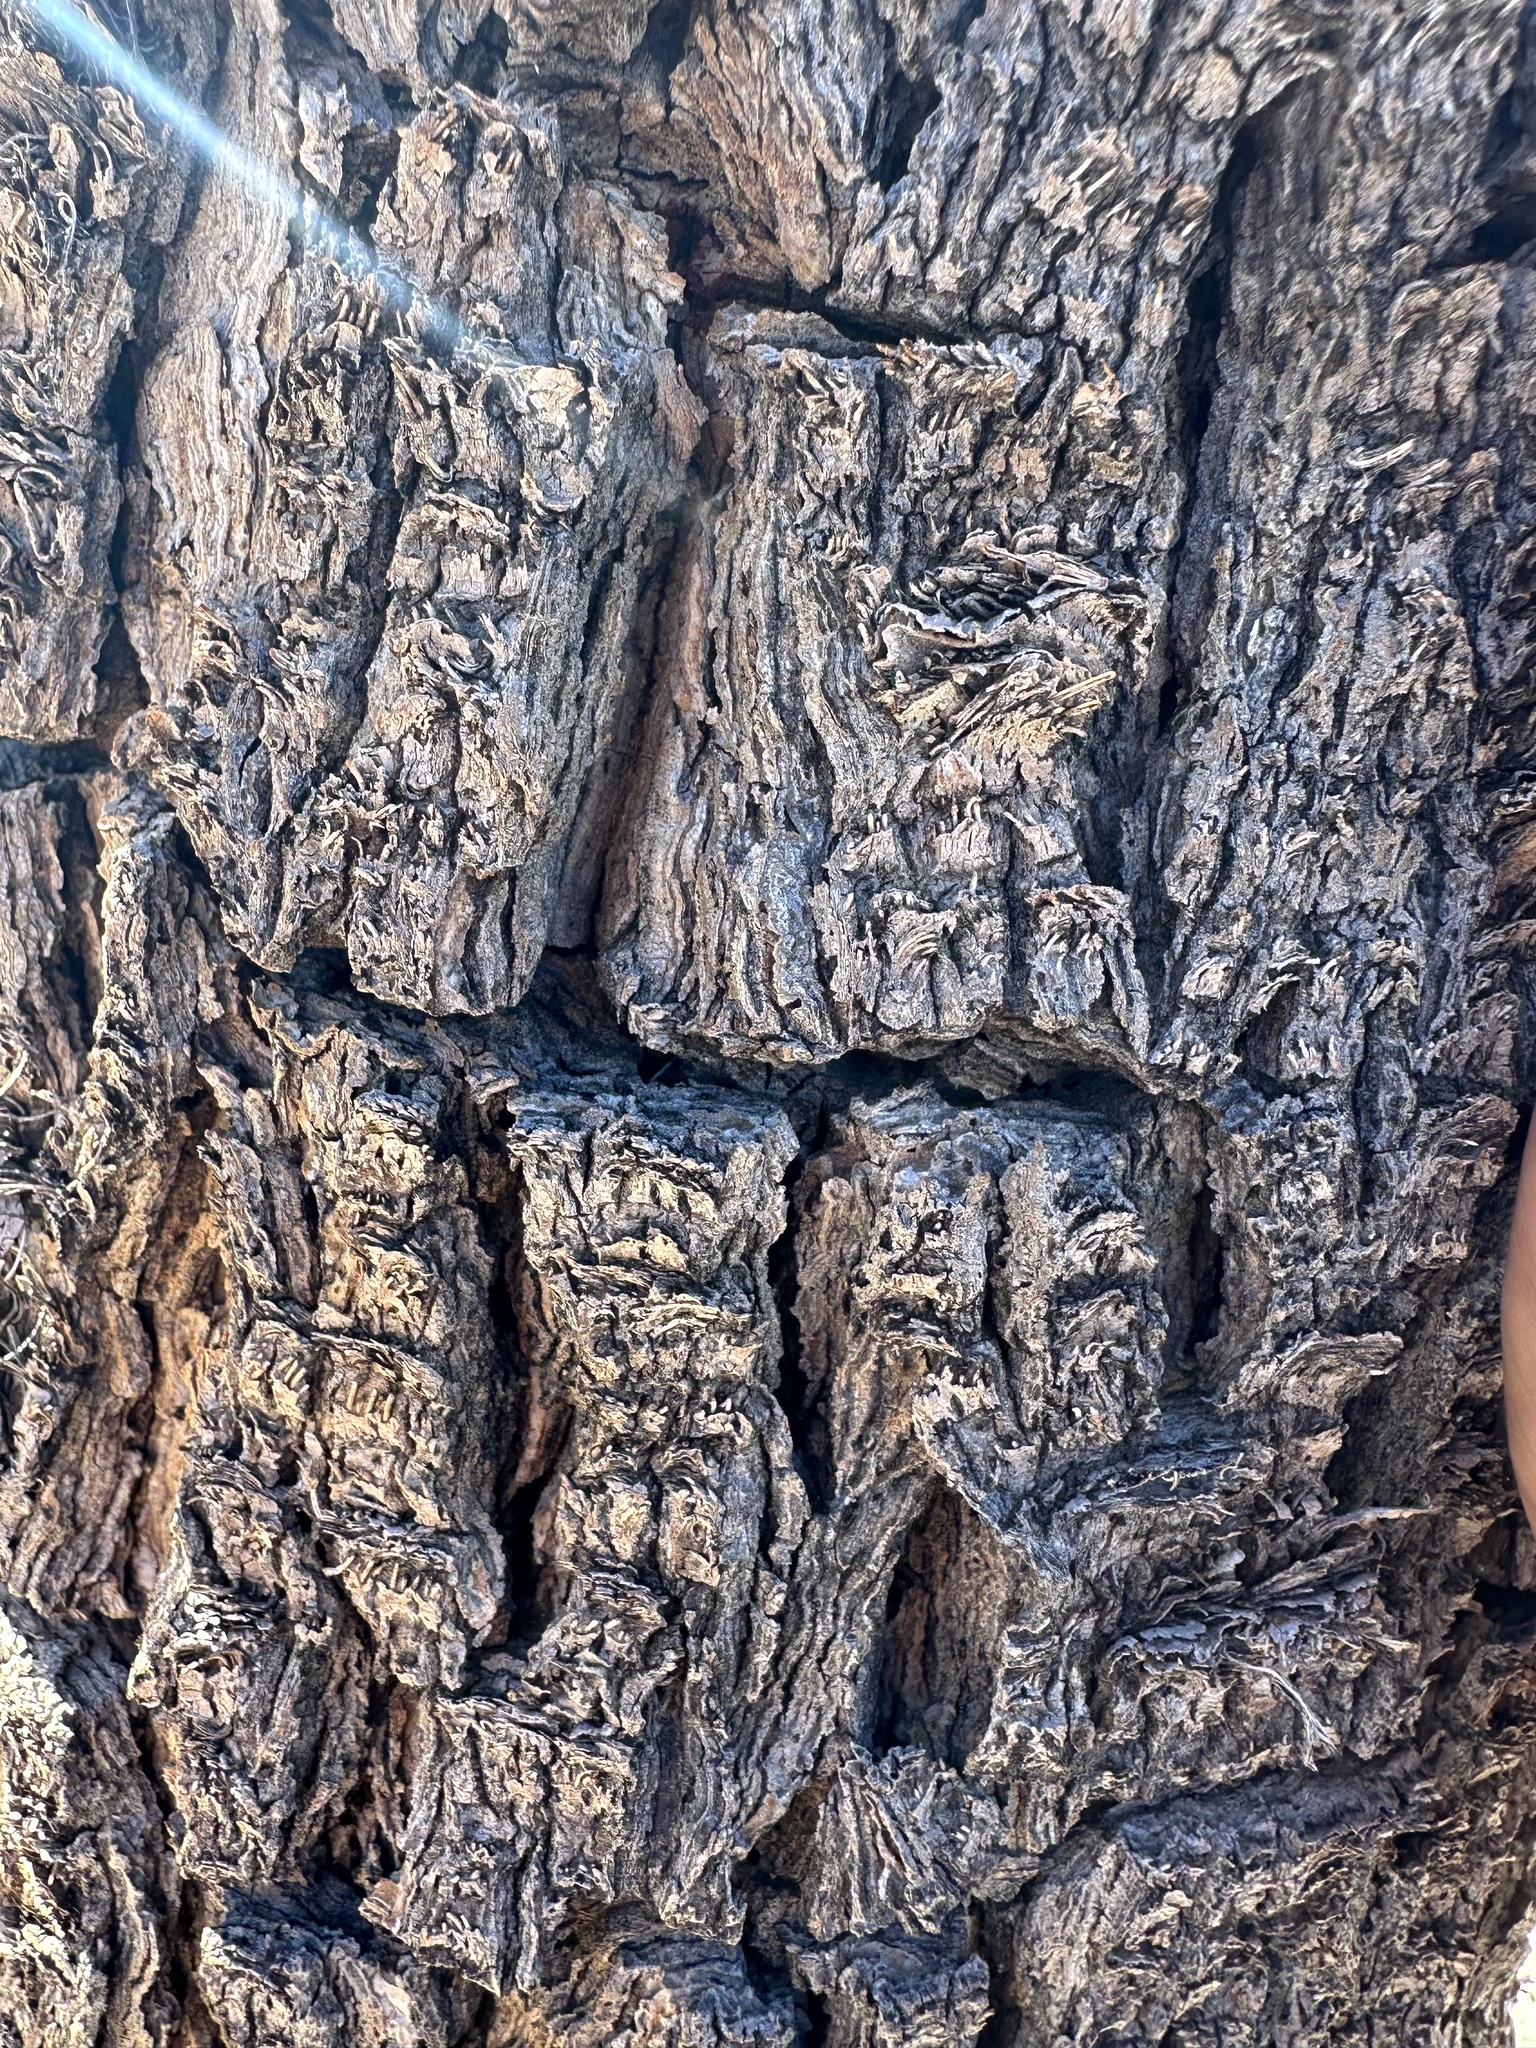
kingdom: Plantae
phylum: Tracheophyta
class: Liliopsida
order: Asparagales
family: Asparagaceae
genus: Yucca
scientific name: Yucca brevifolia
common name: Joshua tree
